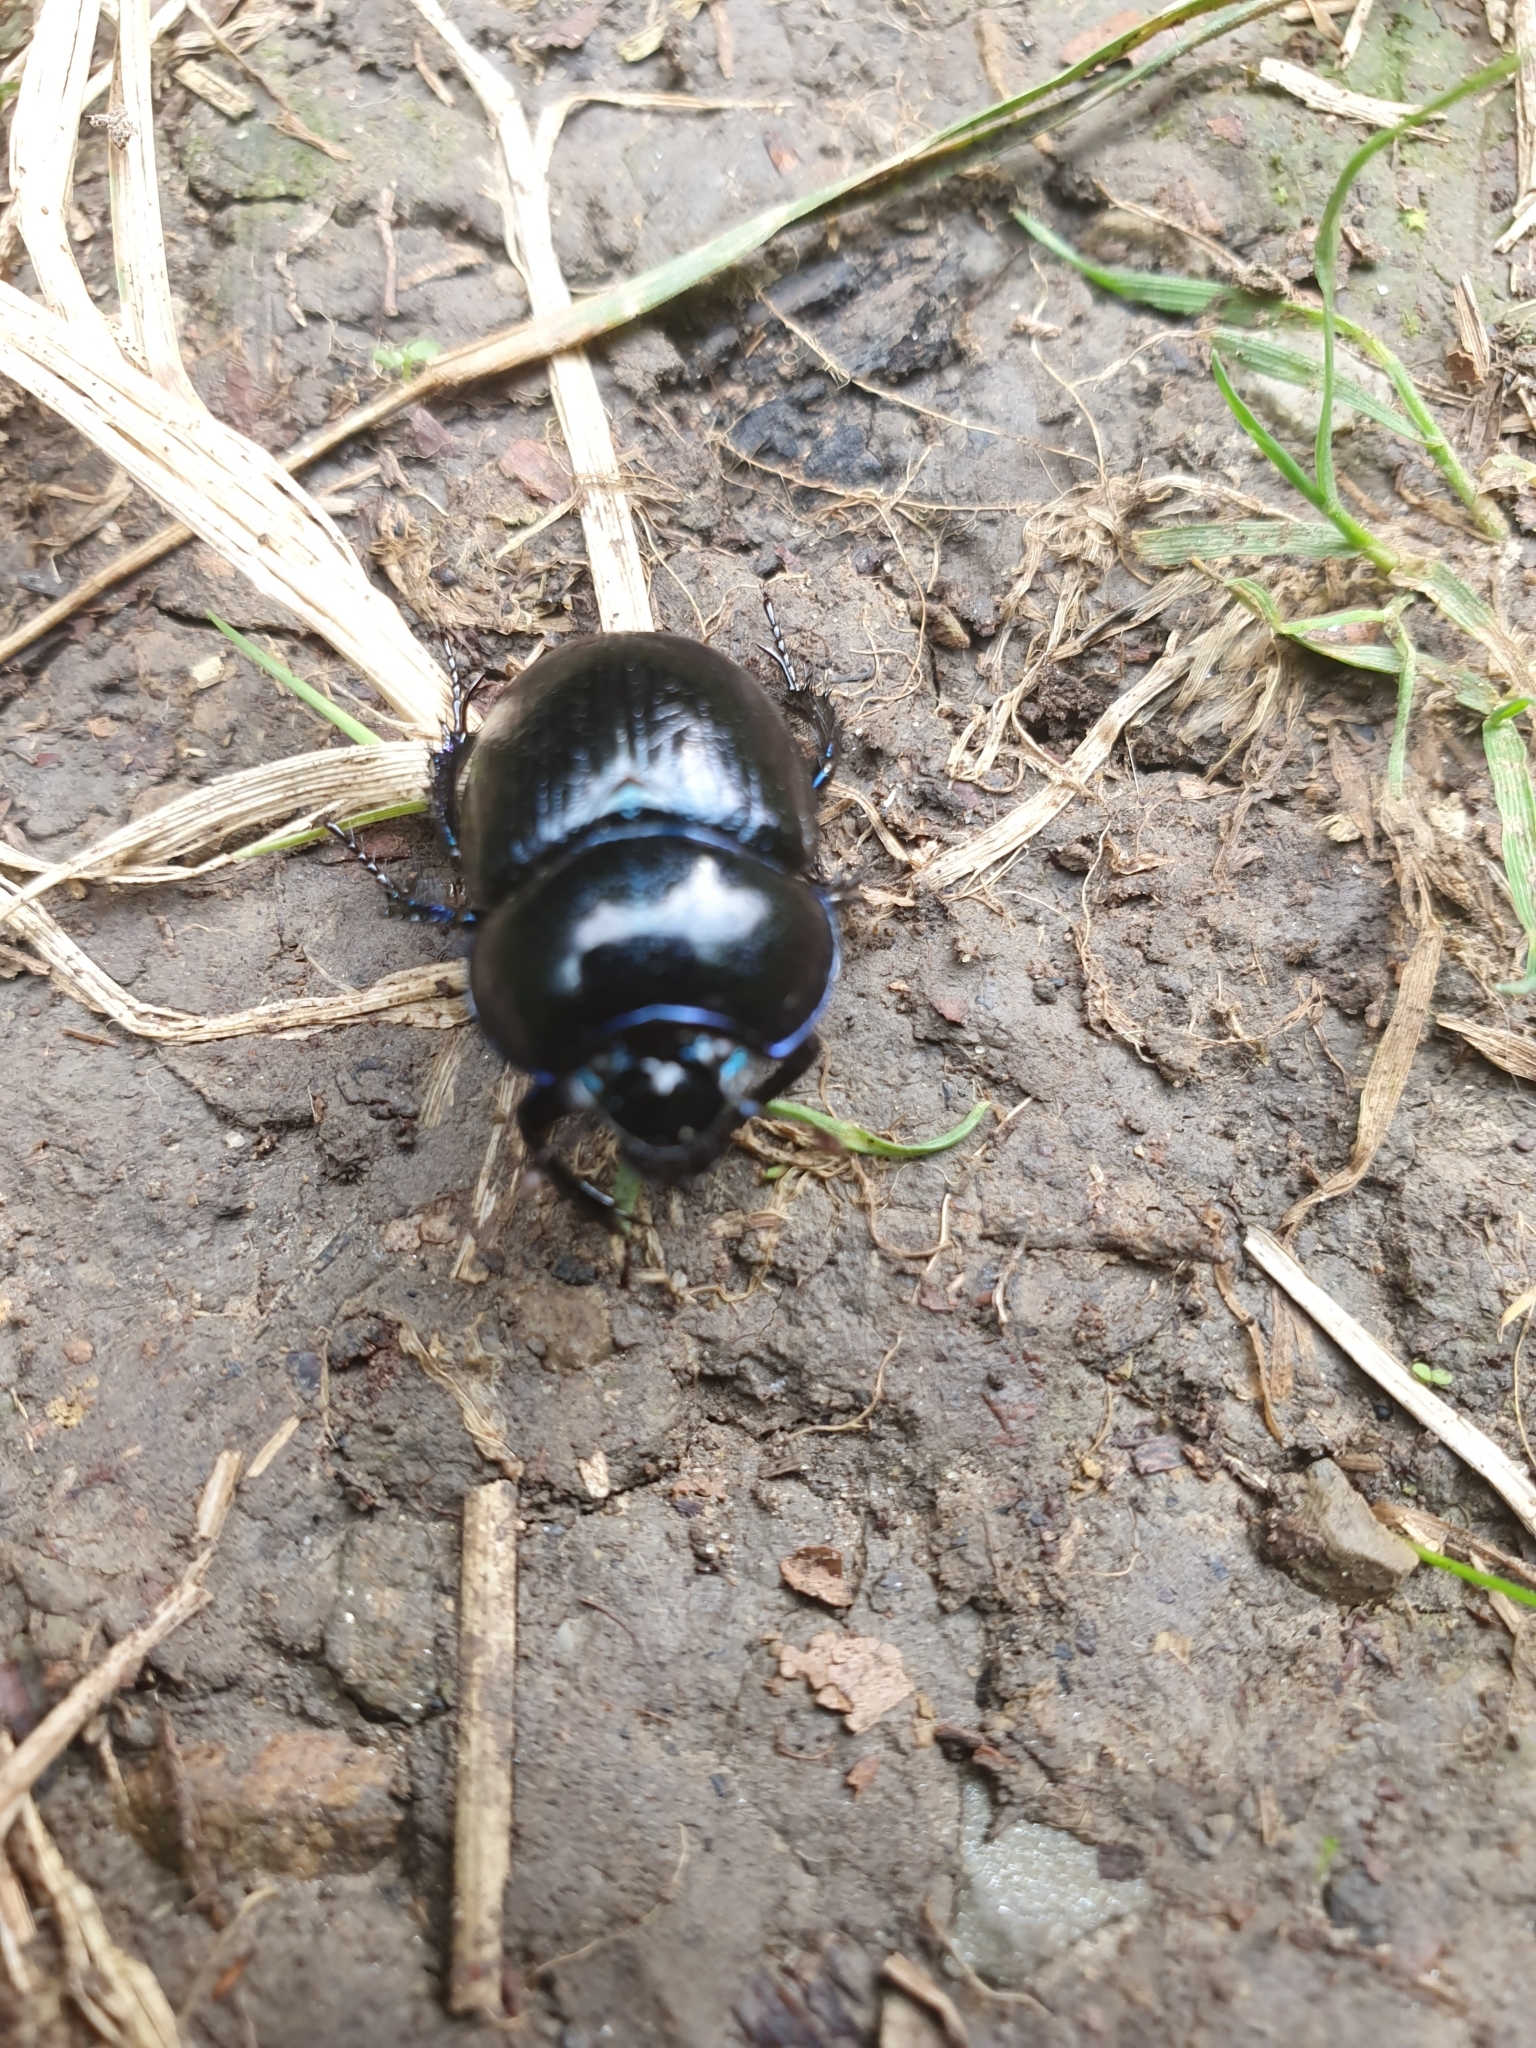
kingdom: Animalia
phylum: Arthropoda
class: Insecta
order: Coleoptera
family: Geotrupidae
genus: Anoplotrupes
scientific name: Anoplotrupes stercorosus
